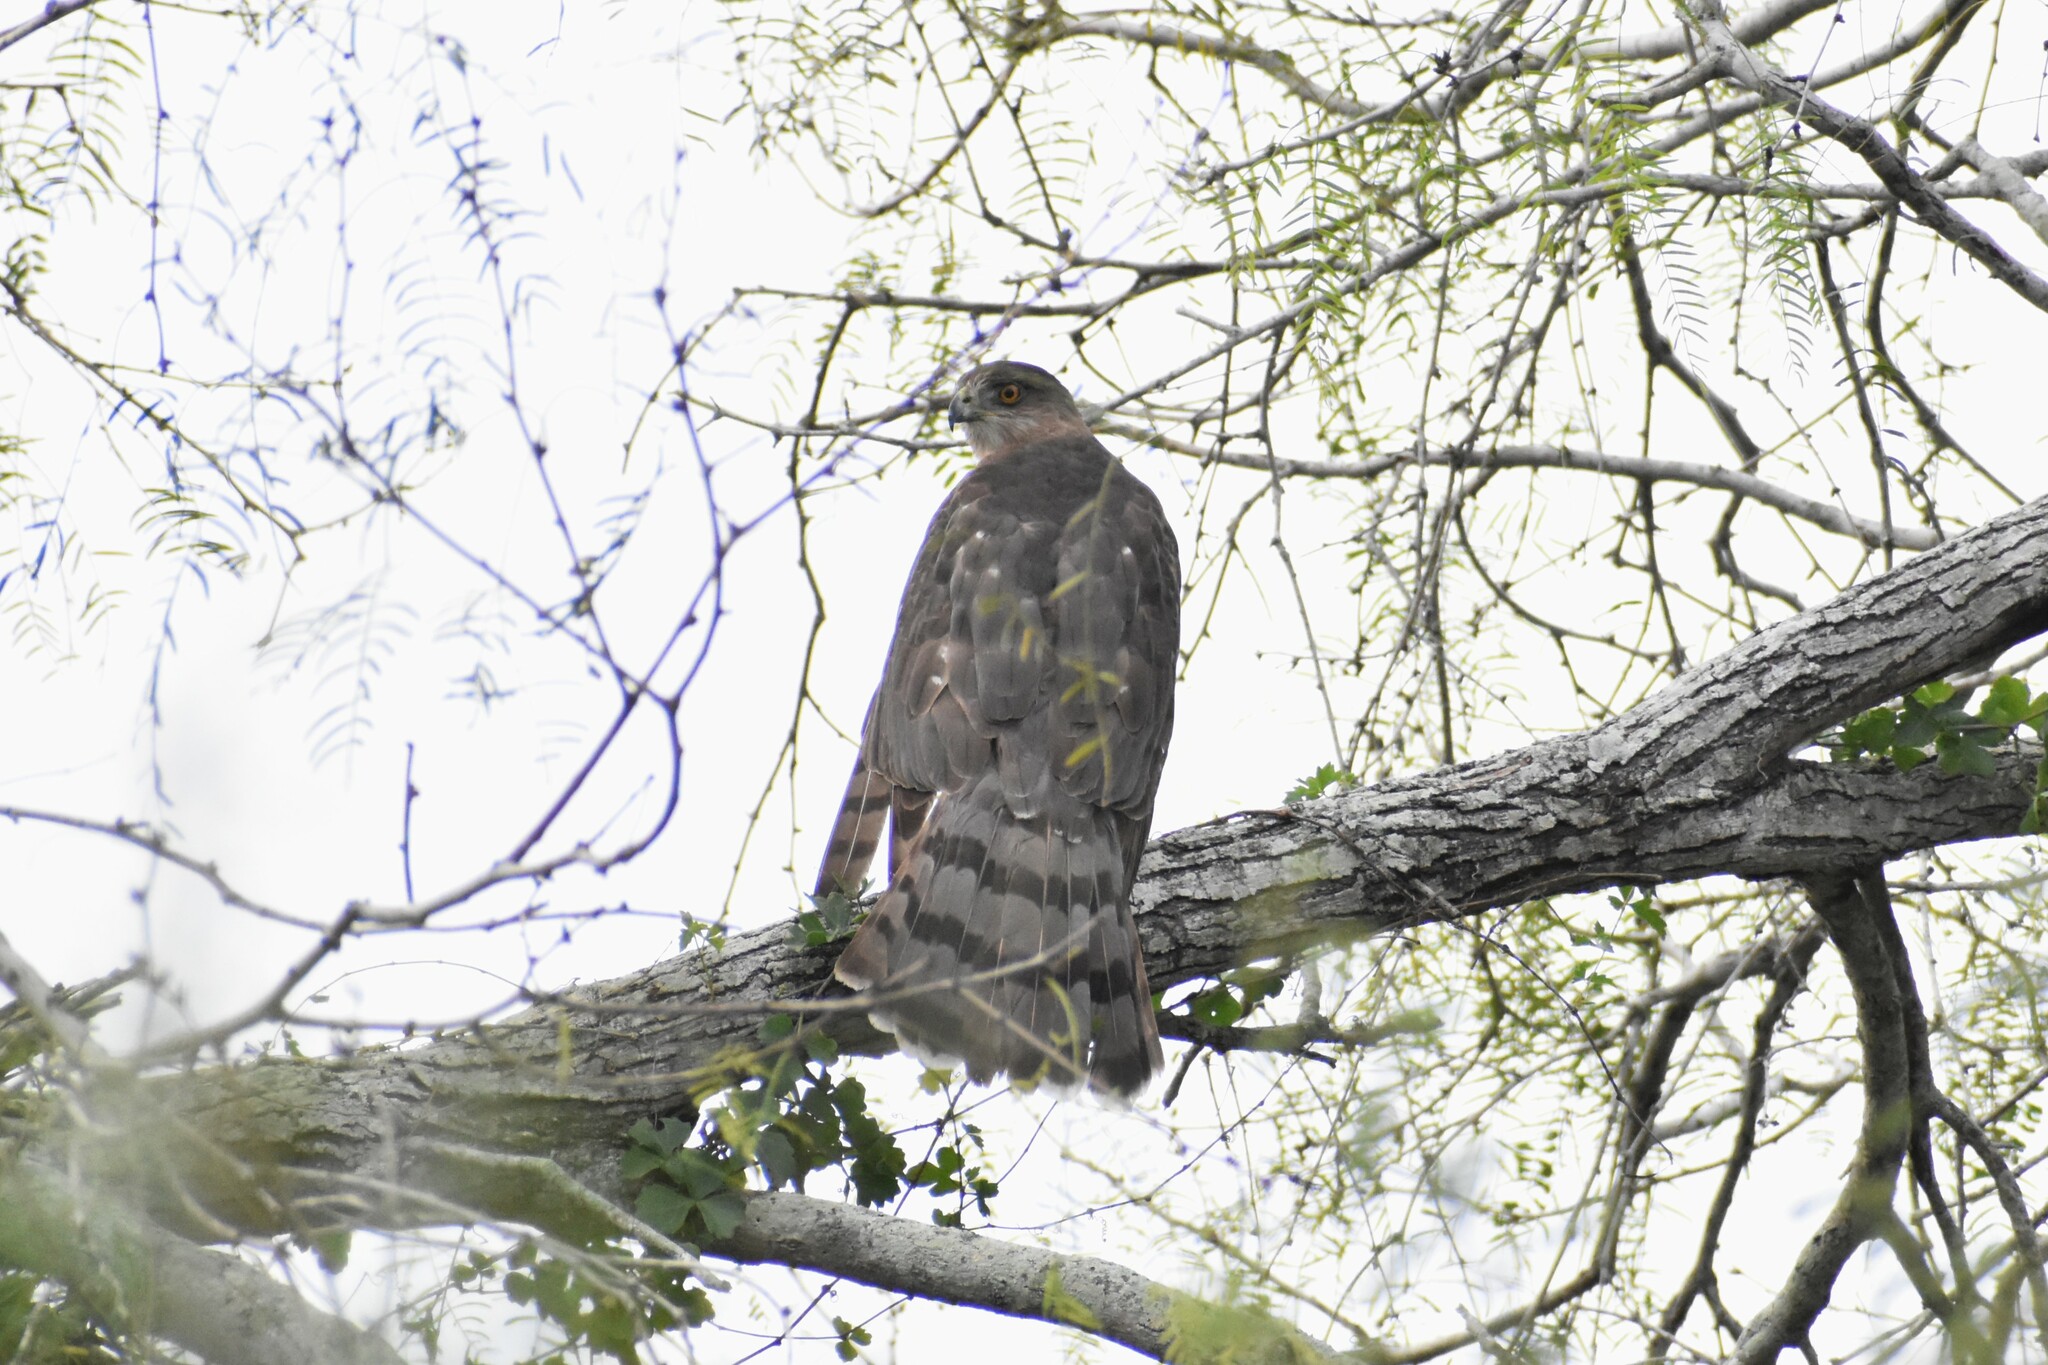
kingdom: Animalia
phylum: Chordata
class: Aves
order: Accipitriformes
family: Accipitridae
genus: Accipiter
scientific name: Accipiter cooperii
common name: Cooper's hawk
